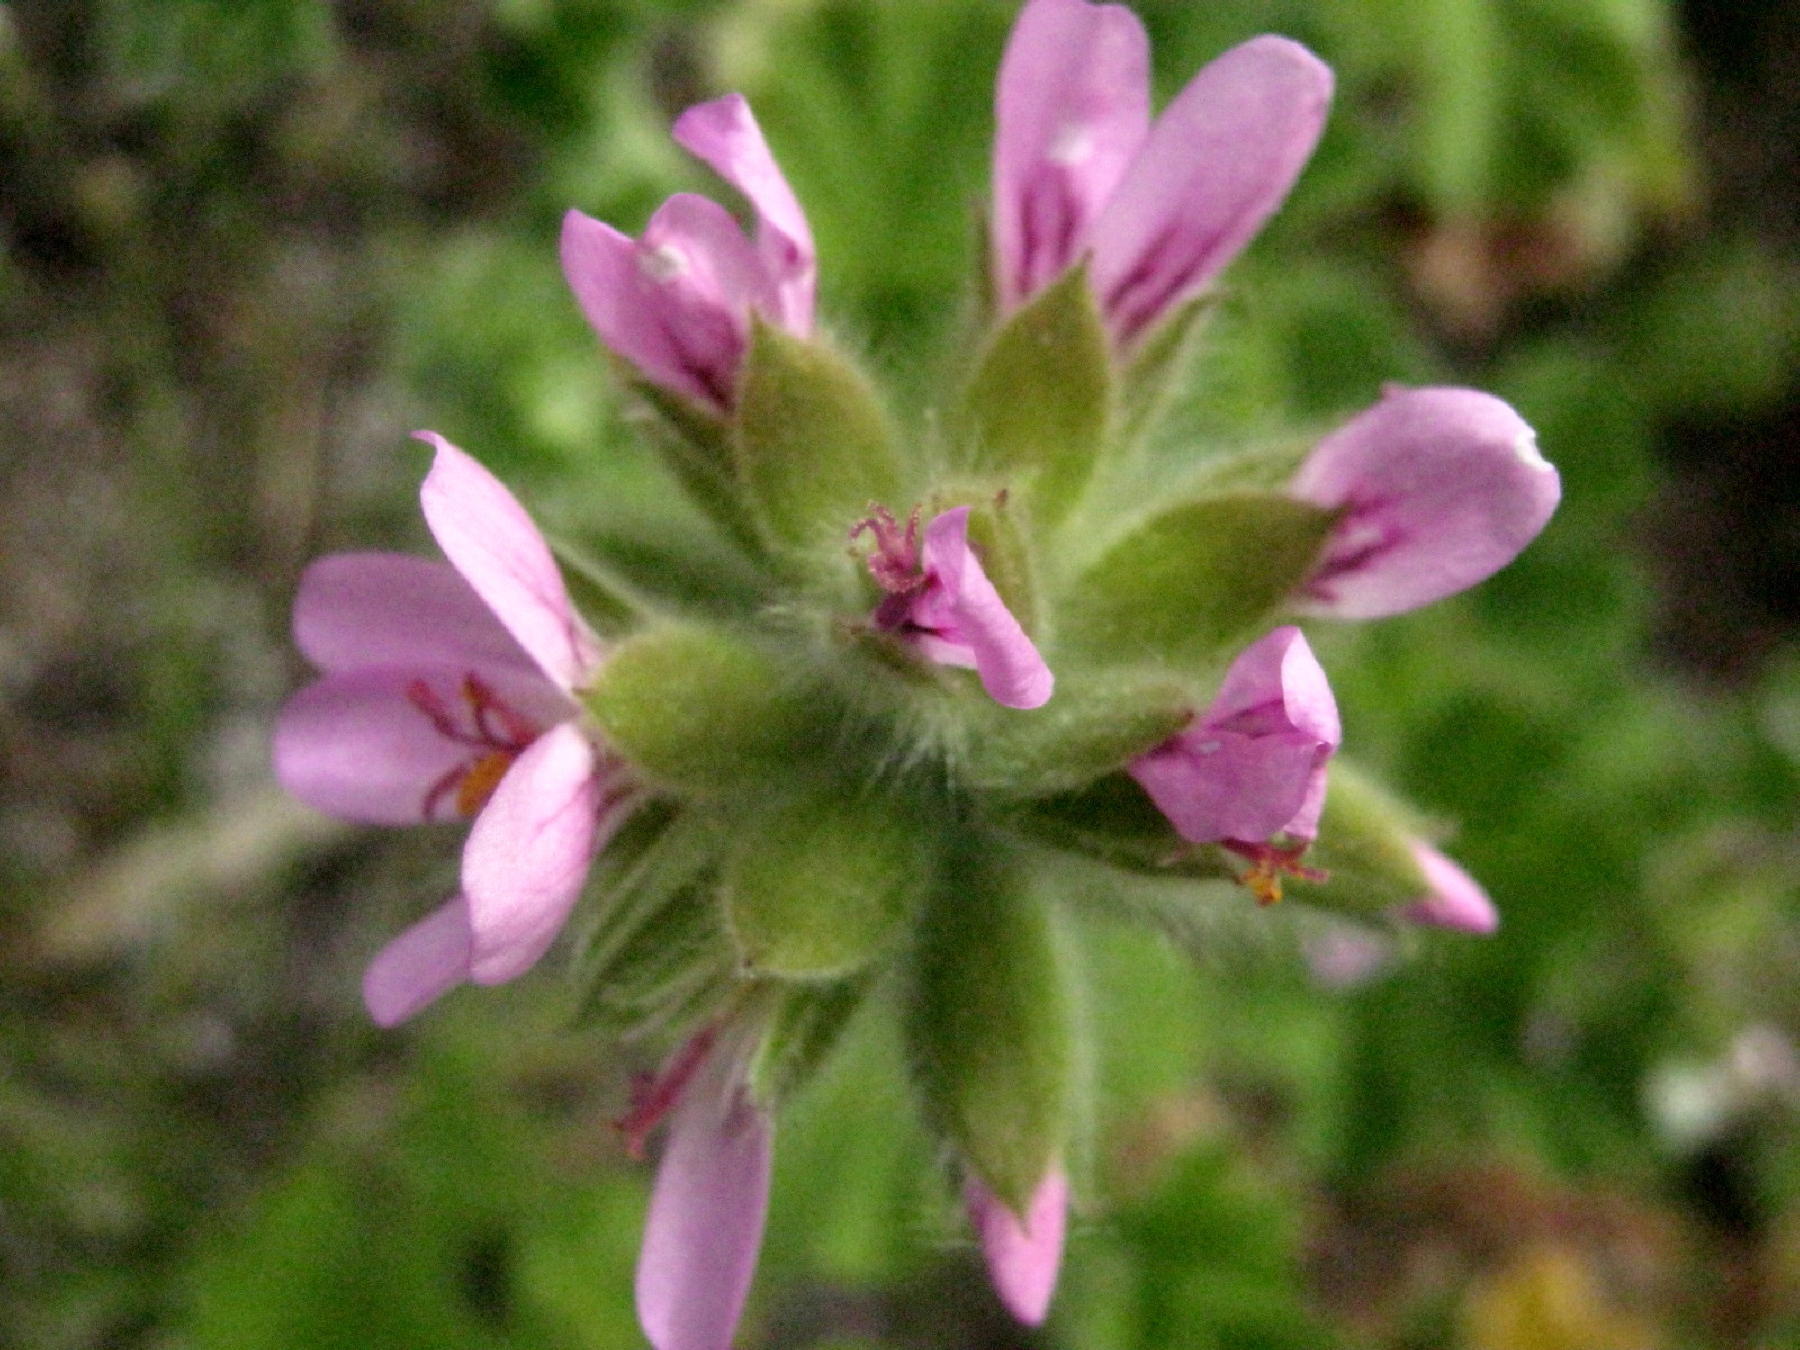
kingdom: Plantae
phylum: Tracheophyta
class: Magnoliopsida
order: Geraniales
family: Geraniaceae
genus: Pelargonium
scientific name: Pelargonium capitatum
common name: Rose scented geranium
